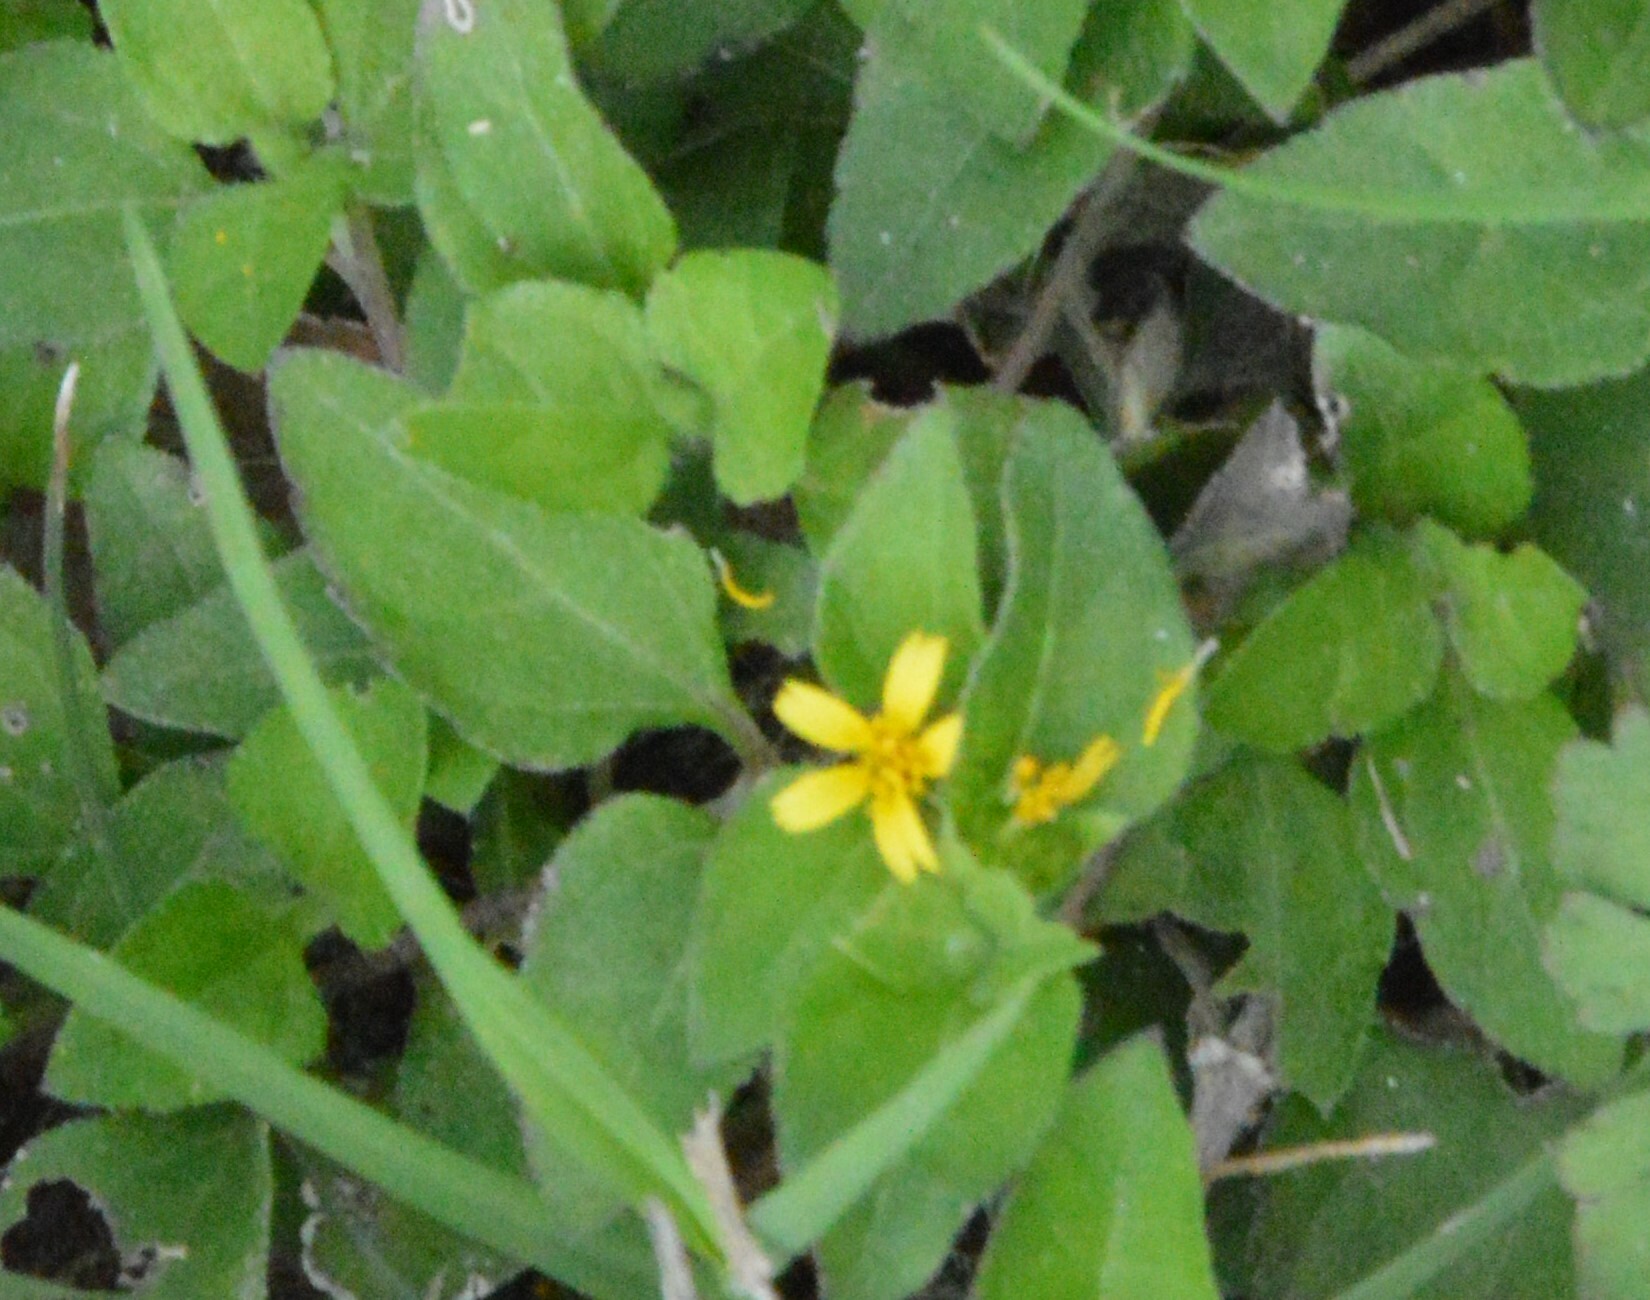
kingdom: Plantae
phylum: Tracheophyta
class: Magnoliopsida
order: Asterales
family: Asteraceae
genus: Calyptocarpus
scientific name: Calyptocarpus vialis
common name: Straggler daisy
